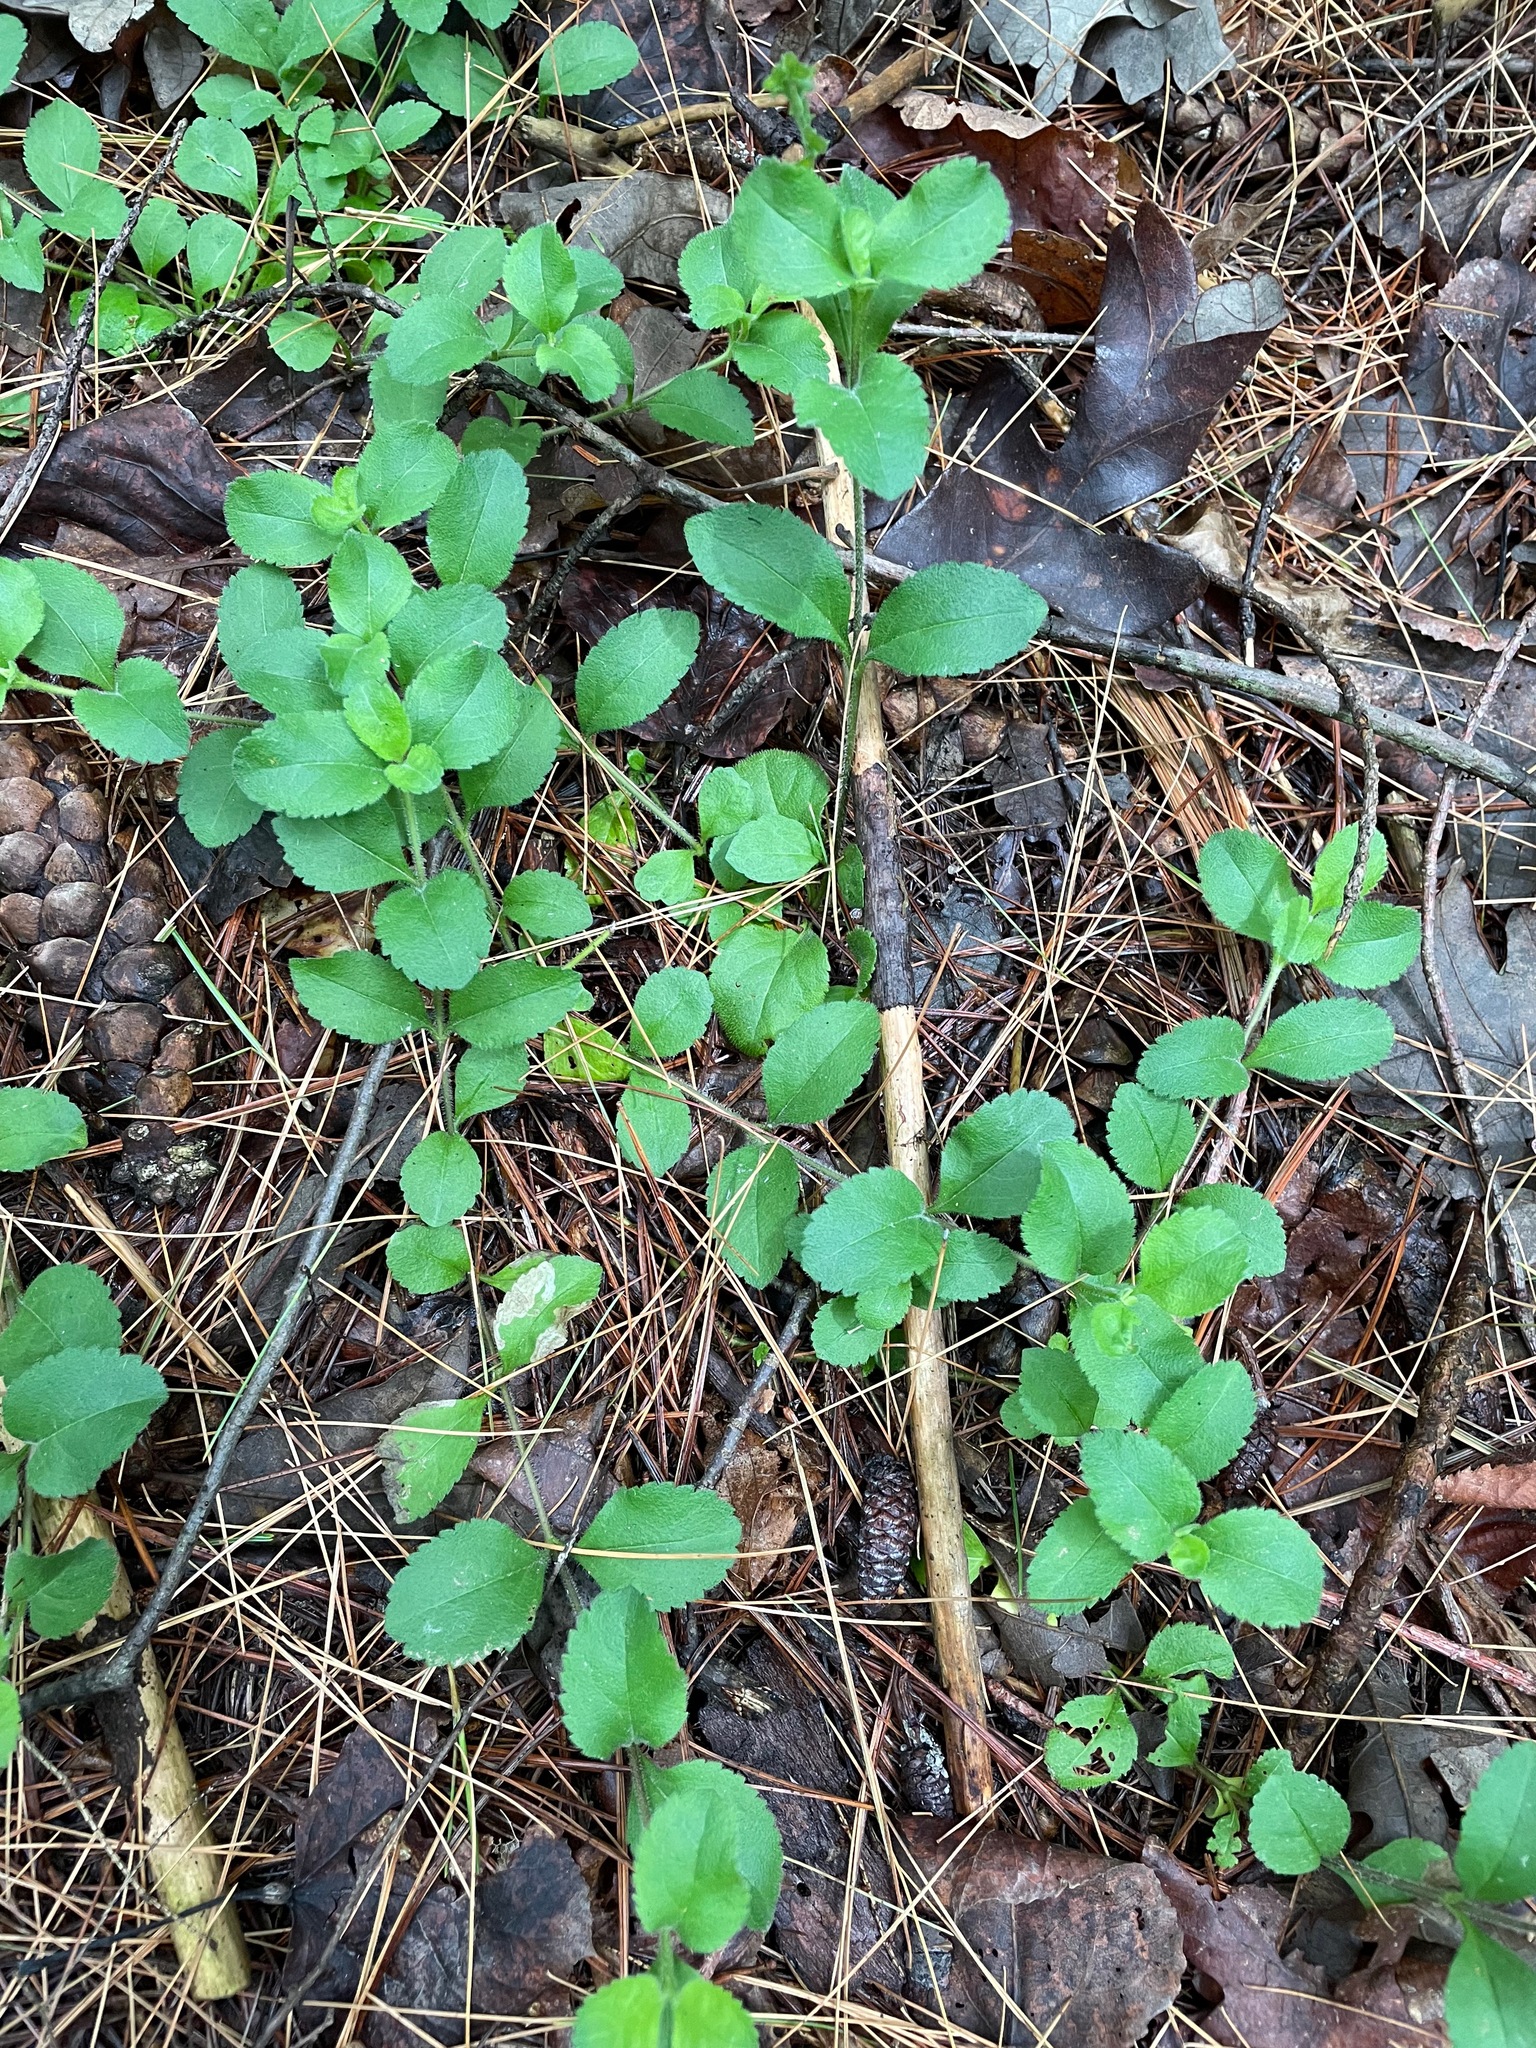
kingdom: Plantae
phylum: Tracheophyta
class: Magnoliopsida
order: Lamiales
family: Plantaginaceae
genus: Veronica
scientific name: Veronica officinalis
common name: Common speedwell
